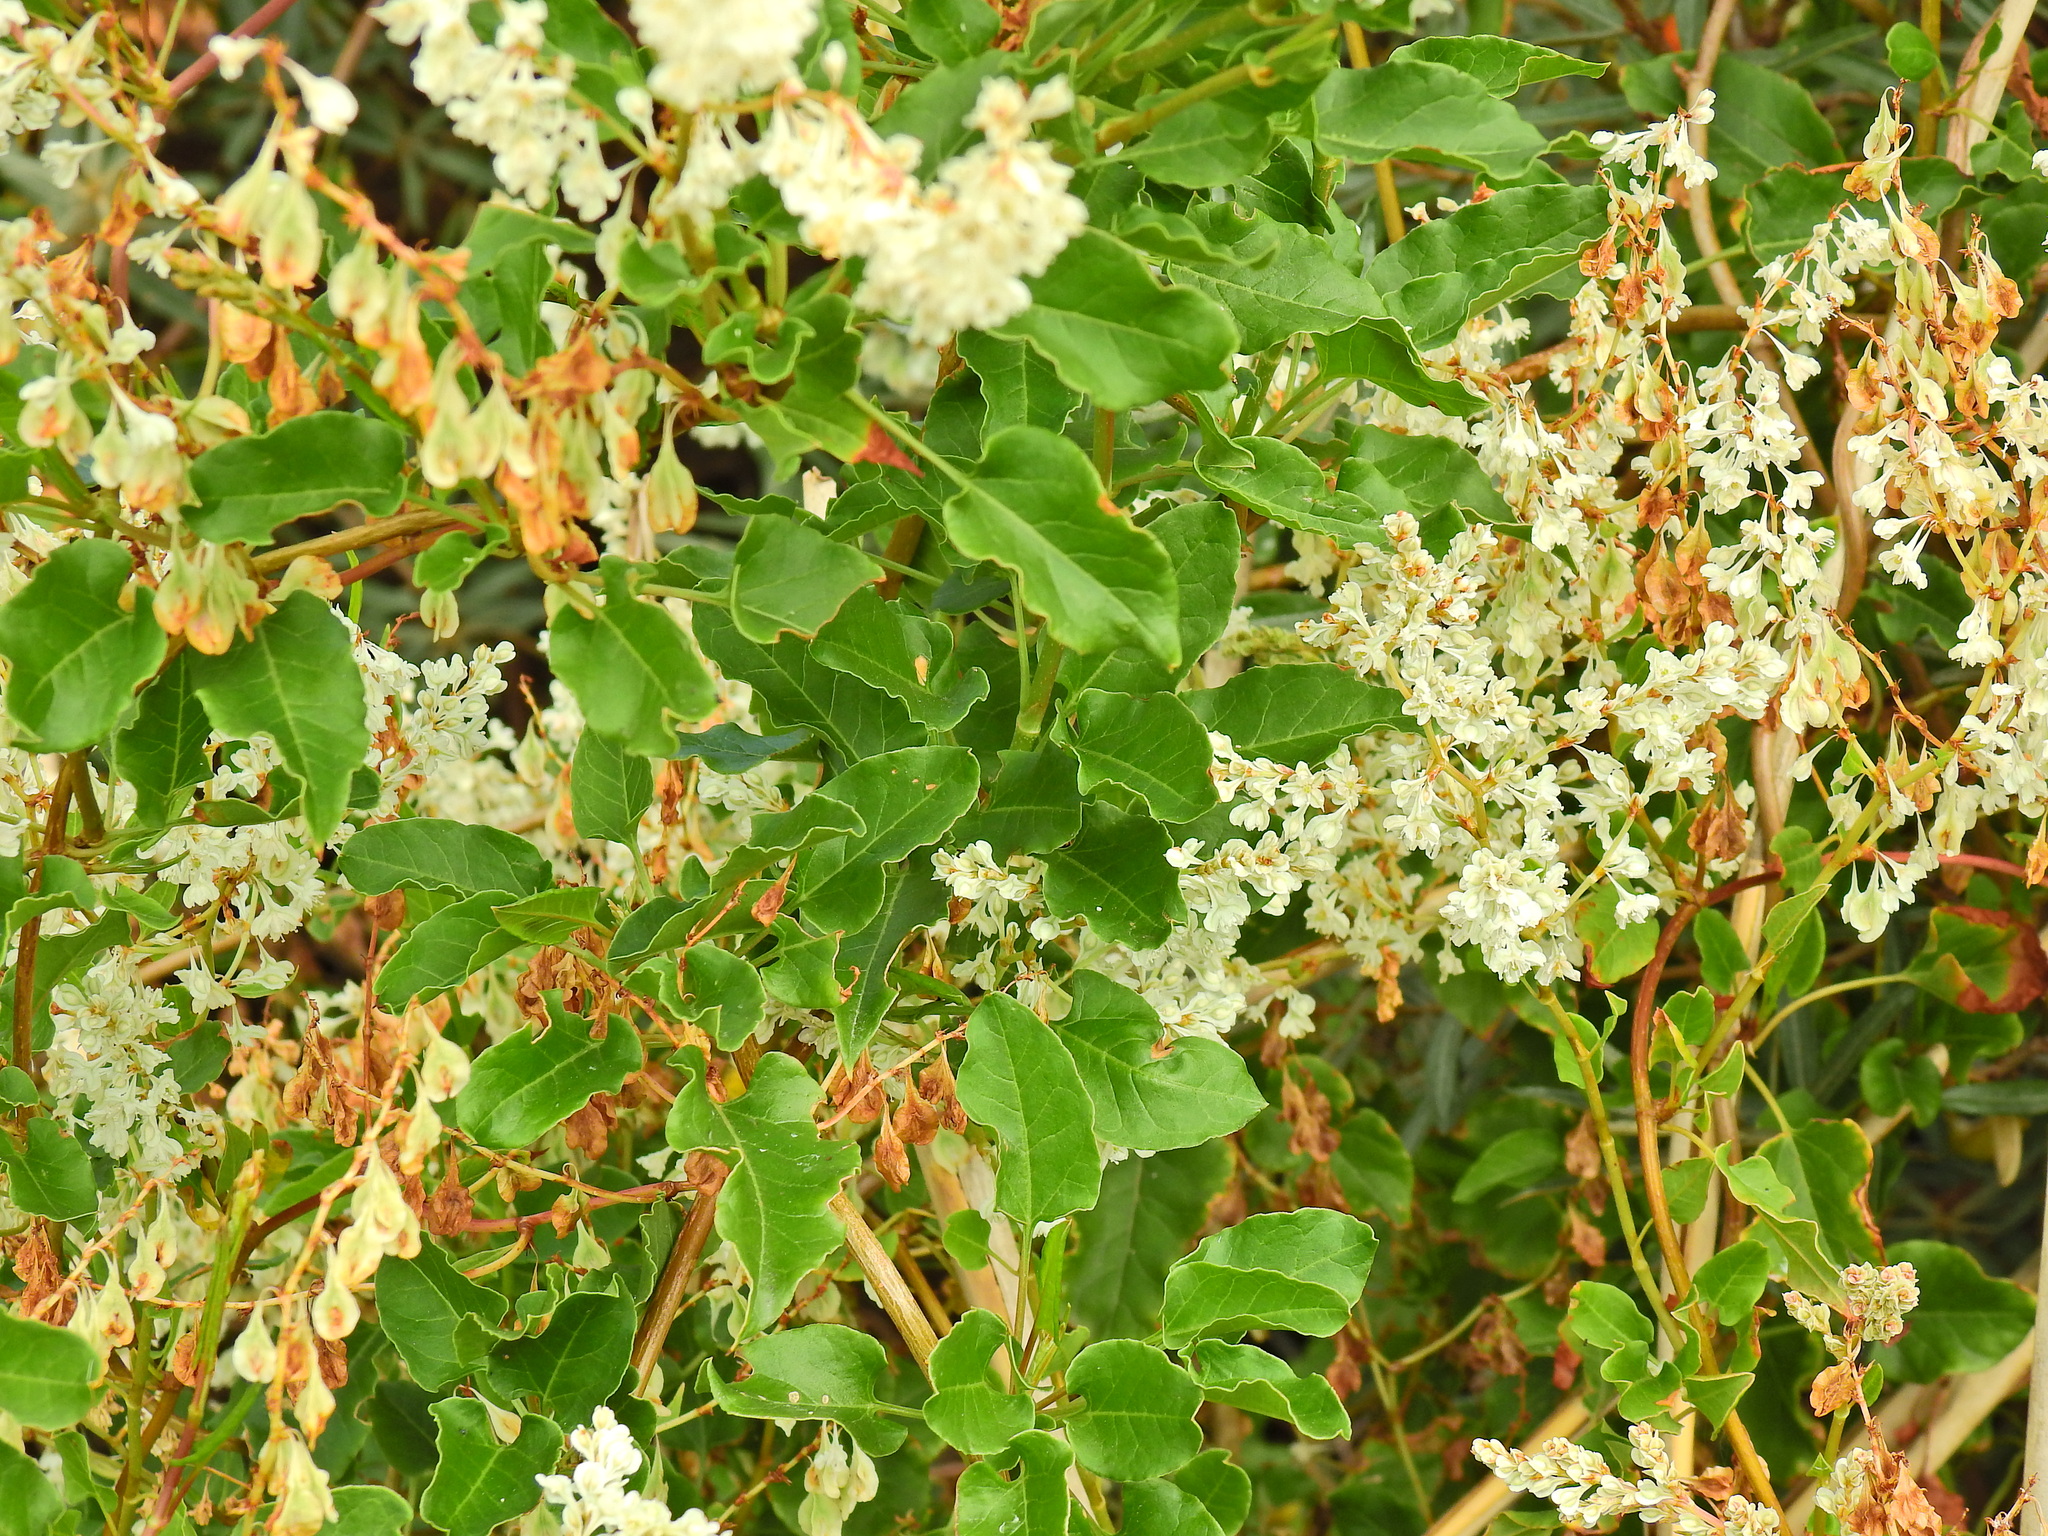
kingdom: Plantae
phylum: Tracheophyta
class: Magnoliopsida
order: Caryophyllales
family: Polygonaceae
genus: Fallopia
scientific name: Fallopia baldschuanica
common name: Russian-vine
